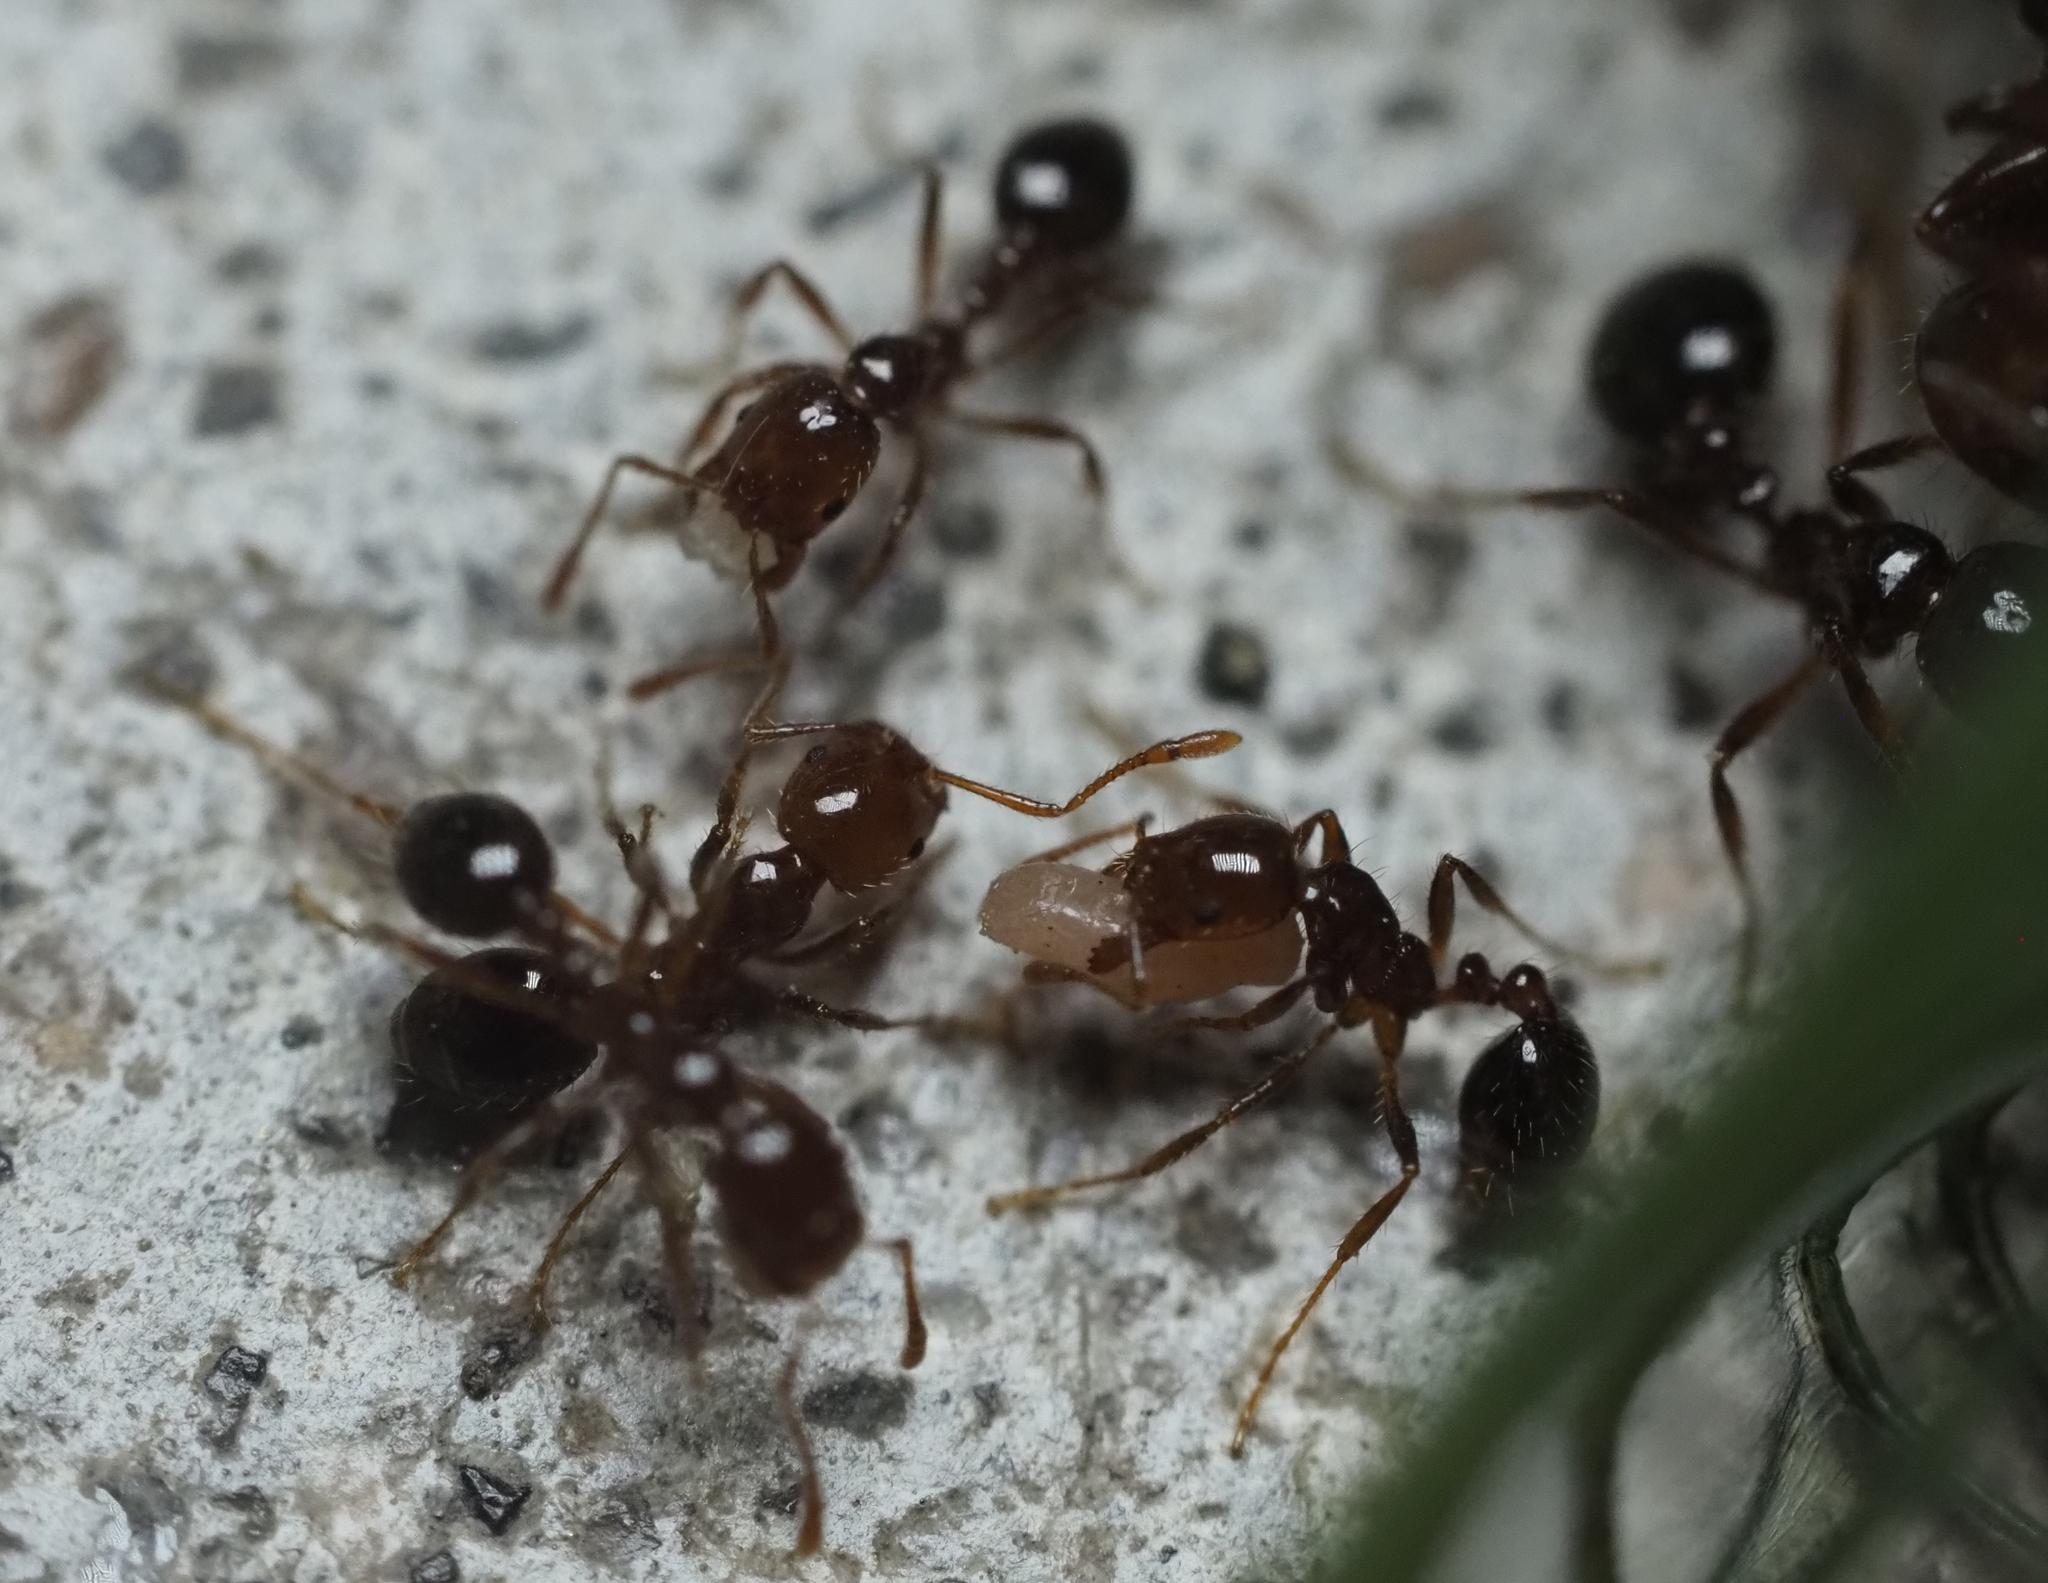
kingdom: Animalia
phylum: Arthropoda
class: Insecta
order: Hymenoptera
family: Formicidae
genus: Solenopsis
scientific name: Solenopsis invicta
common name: Red imported fire ant
